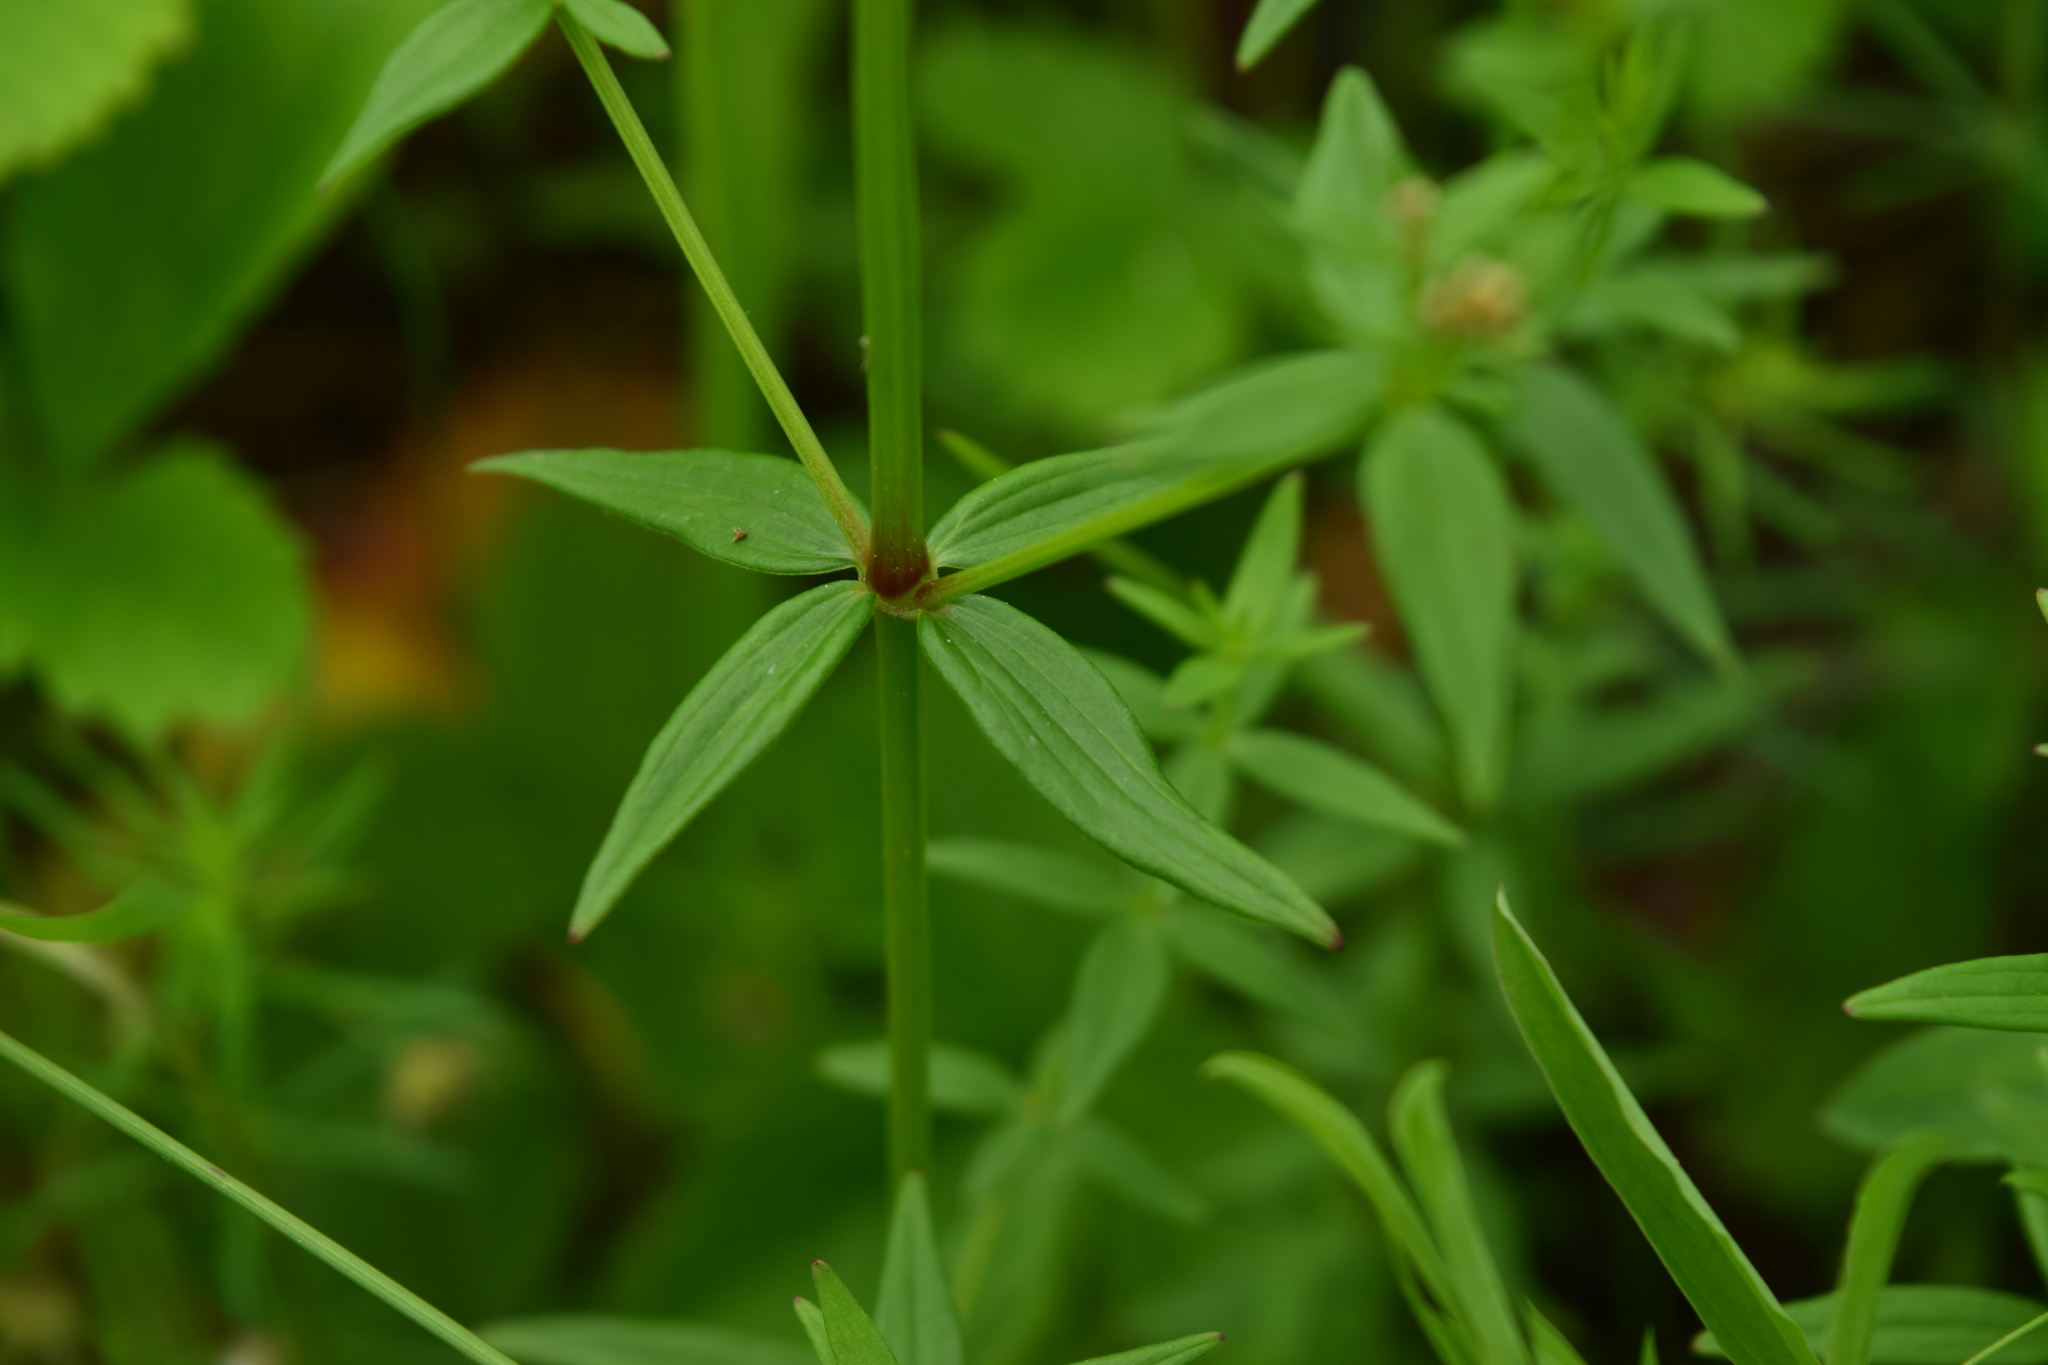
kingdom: Plantae
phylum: Tracheophyta
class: Magnoliopsida
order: Gentianales
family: Rubiaceae
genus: Galium
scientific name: Galium boreale
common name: Northern bedstraw
